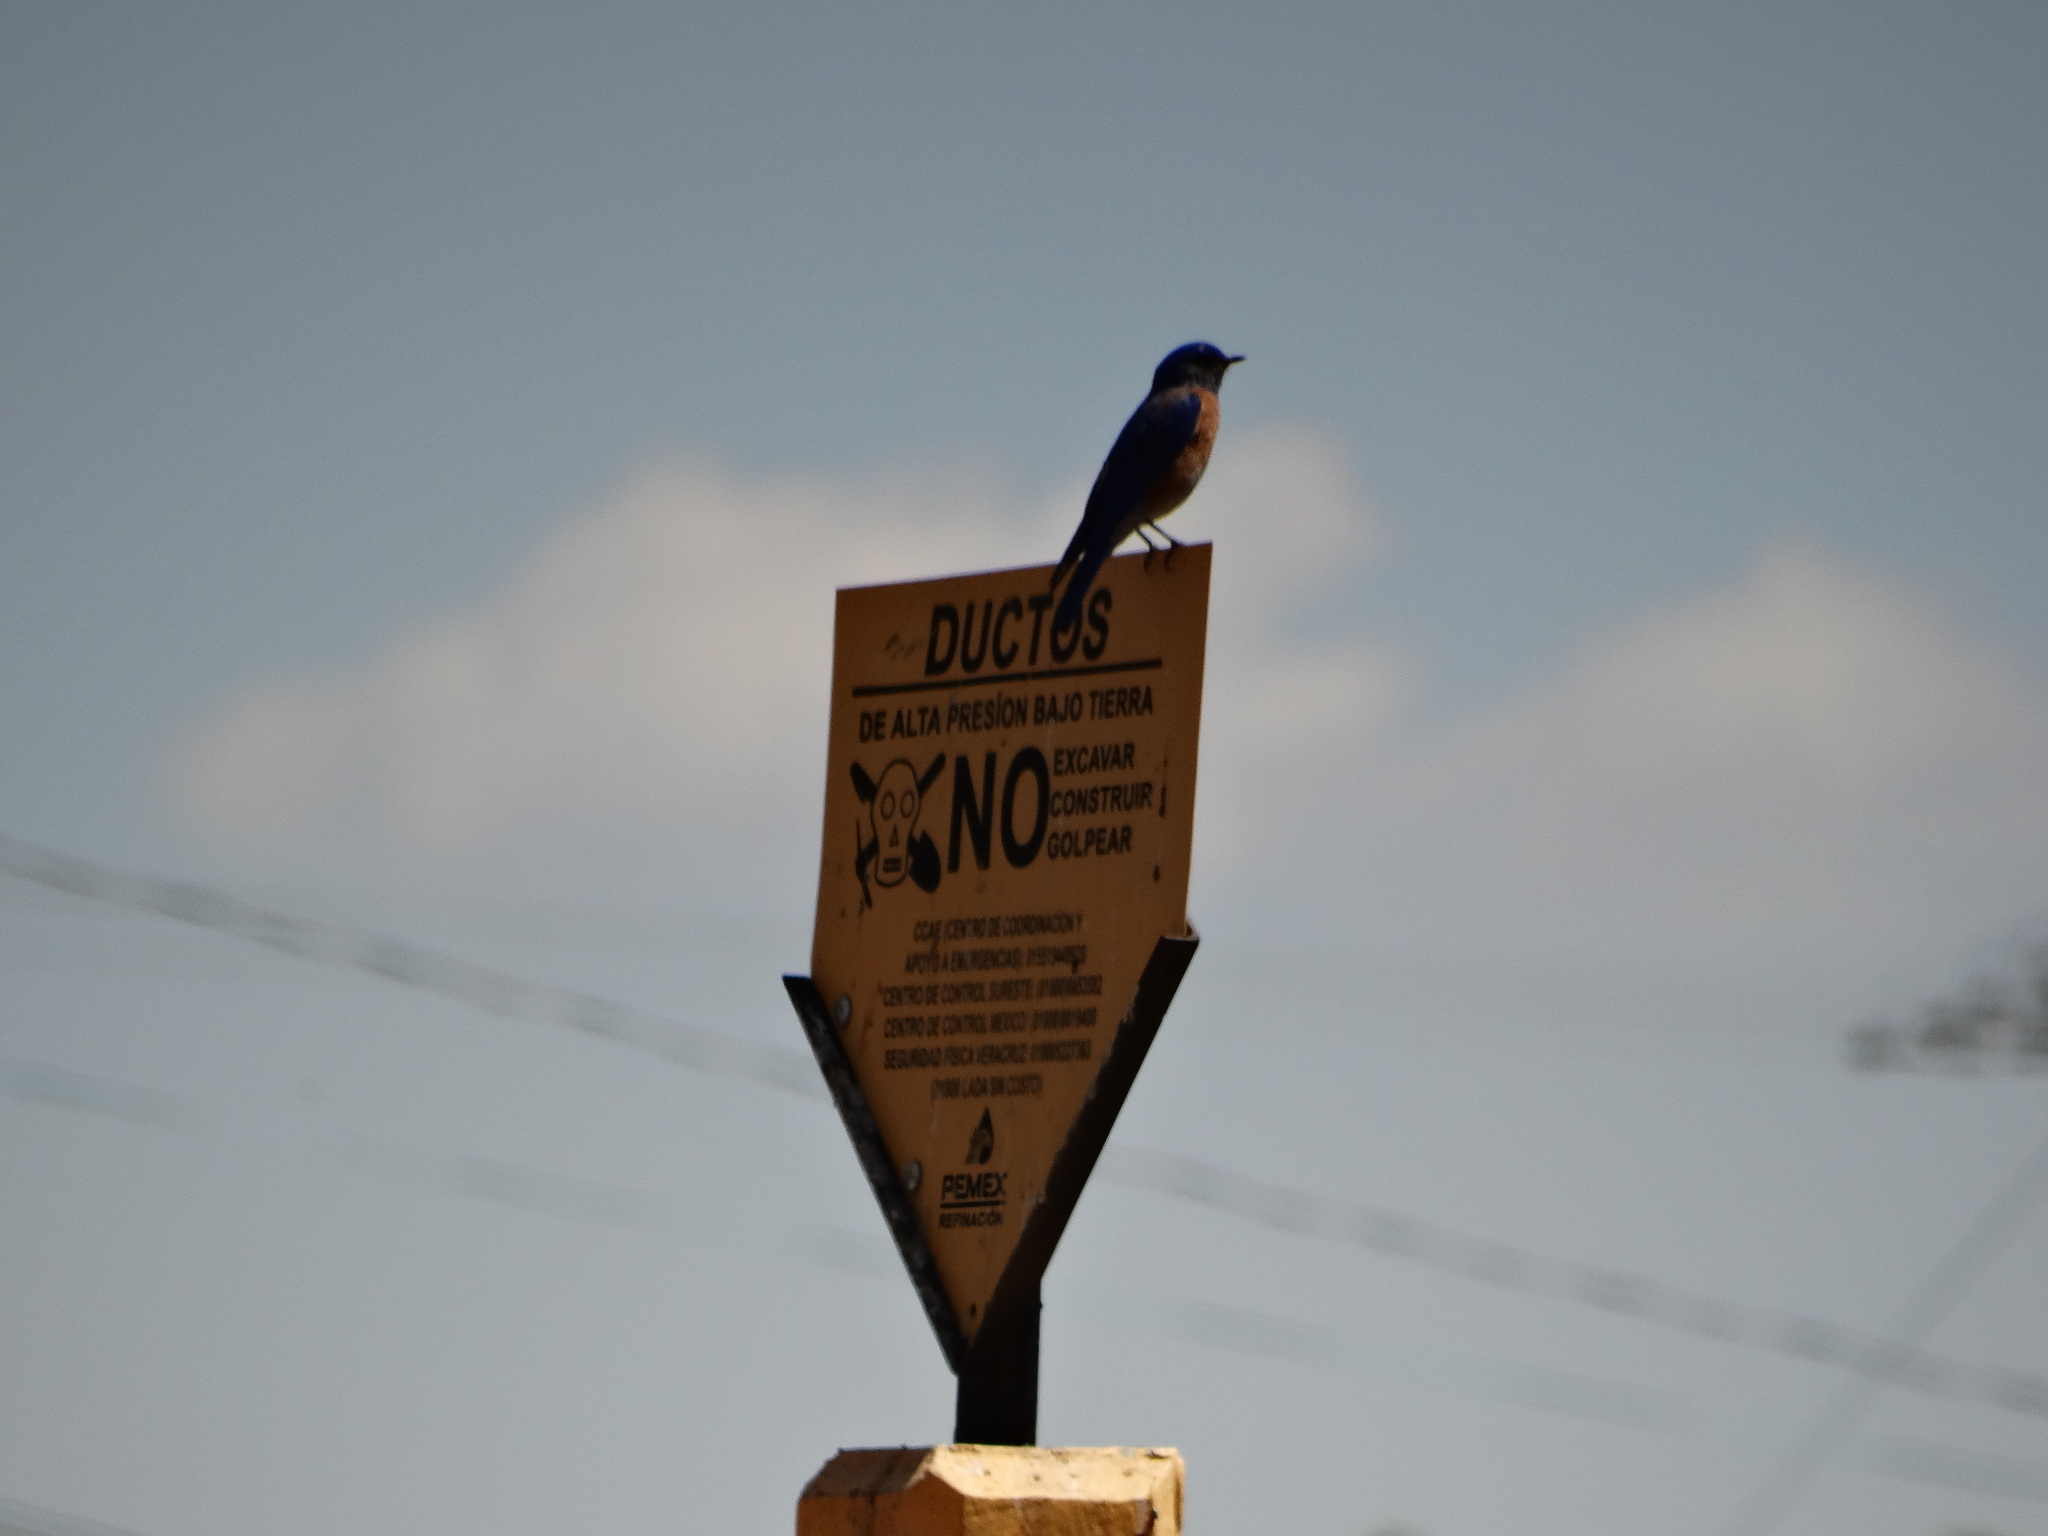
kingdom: Animalia
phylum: Chordata
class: Aves
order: Passeriformes
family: Turdidae
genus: Sialia
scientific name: Sialia mexicana
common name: Western bluebird
